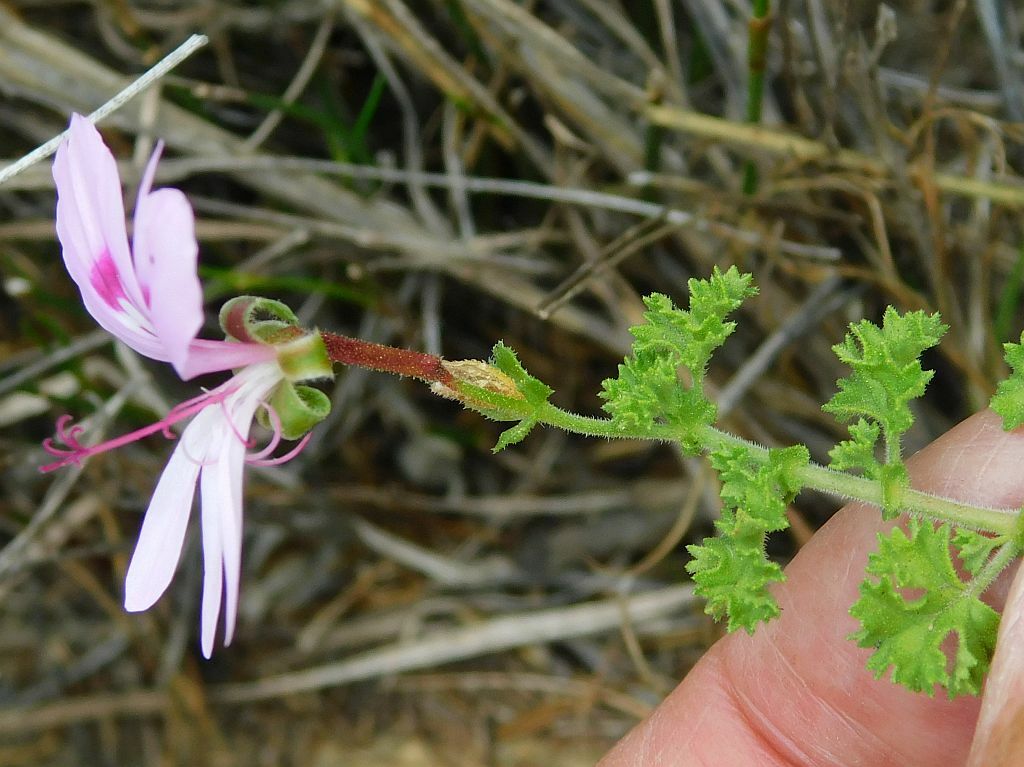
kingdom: Plantae
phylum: Tracheophyta
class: Magnoliopsida
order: Geraniales
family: Geraniaceae
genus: Pelargonium
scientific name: Pelargonium crispum
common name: Crisped-leaf pelargonium
